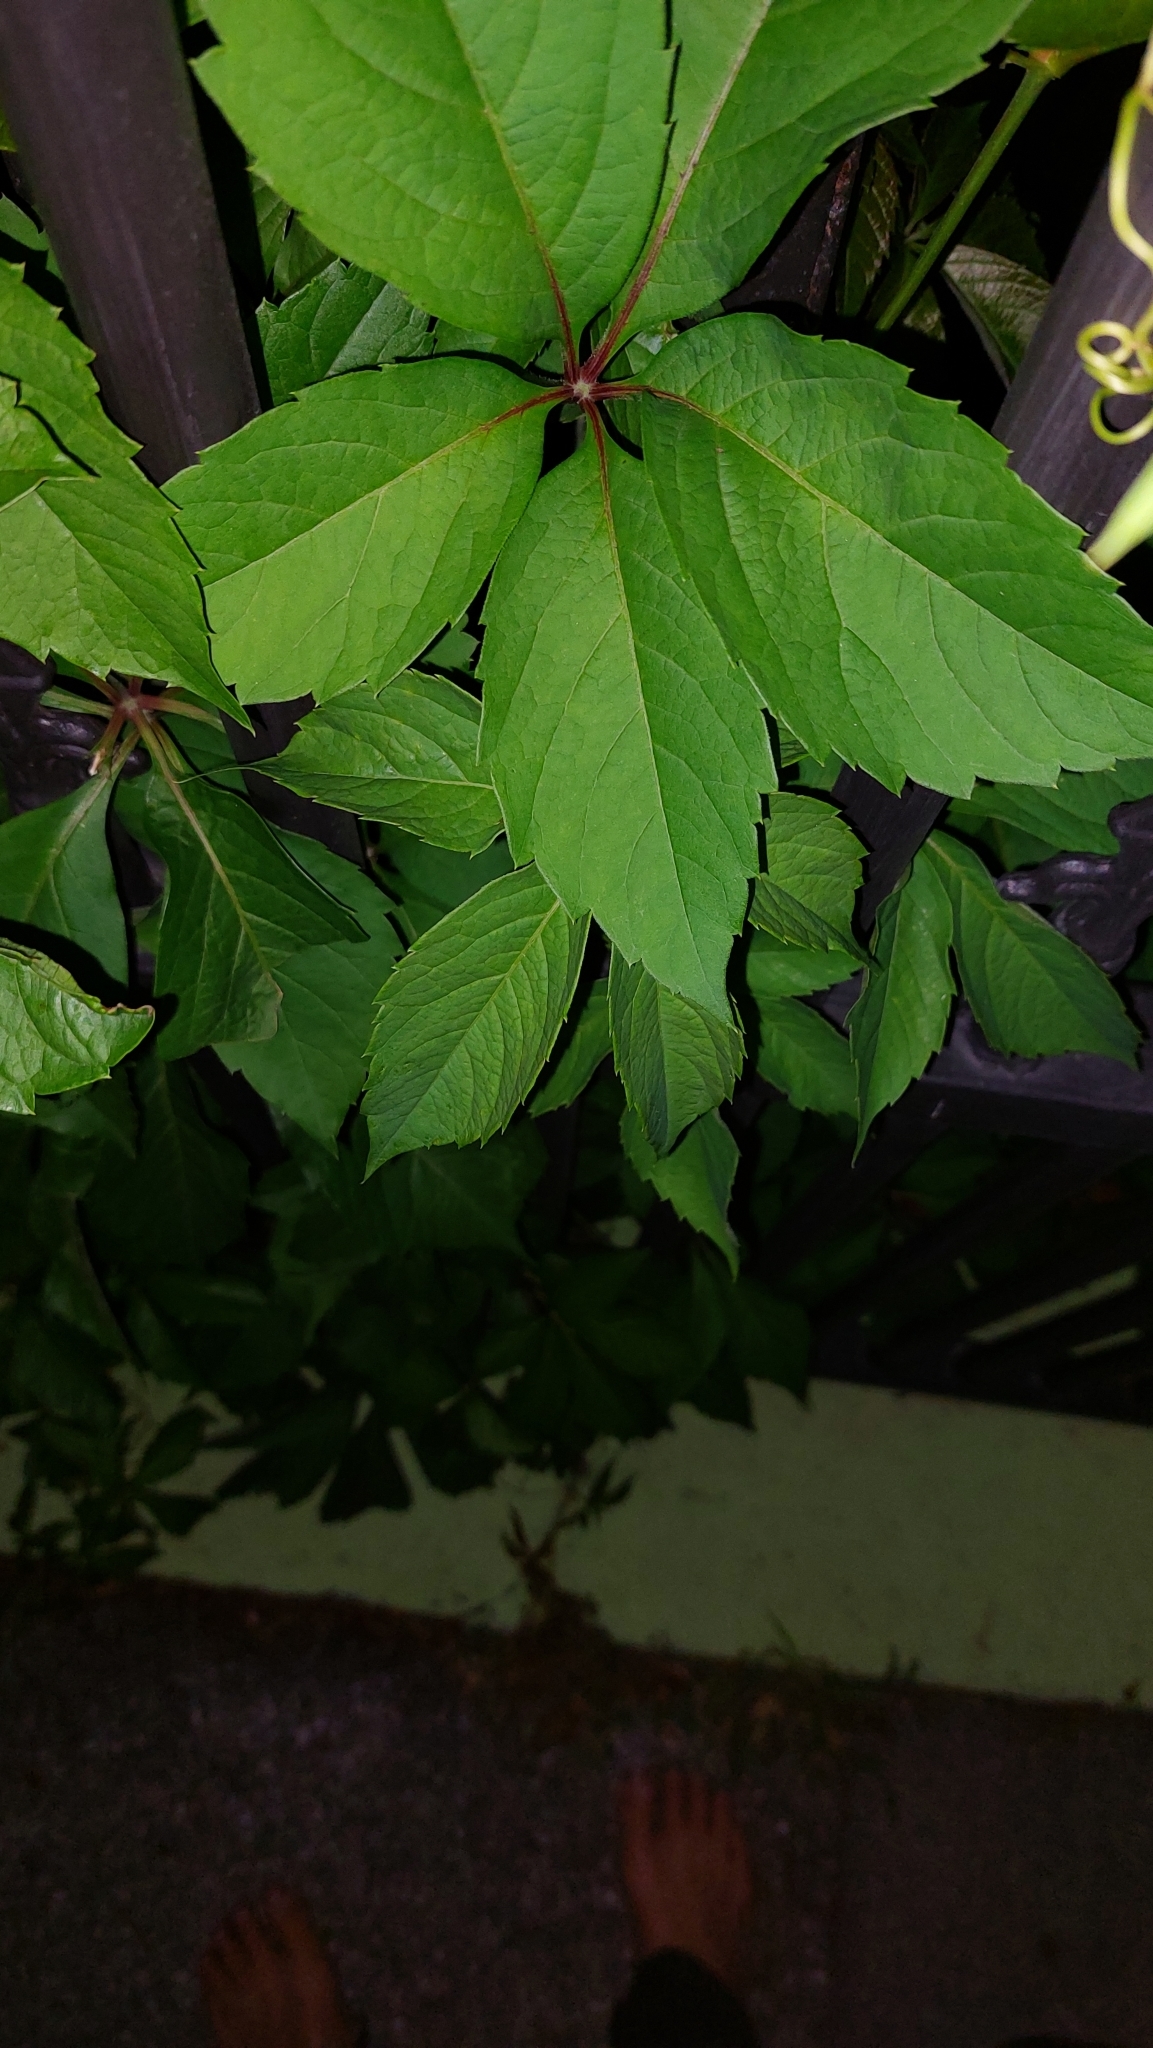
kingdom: Plantae
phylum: Tracheophyta
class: Magnoliopsida
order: Vitales
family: Vitaceae
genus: Parthenocissus
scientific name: Parthenocissus inserta
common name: False virginia-creeper
